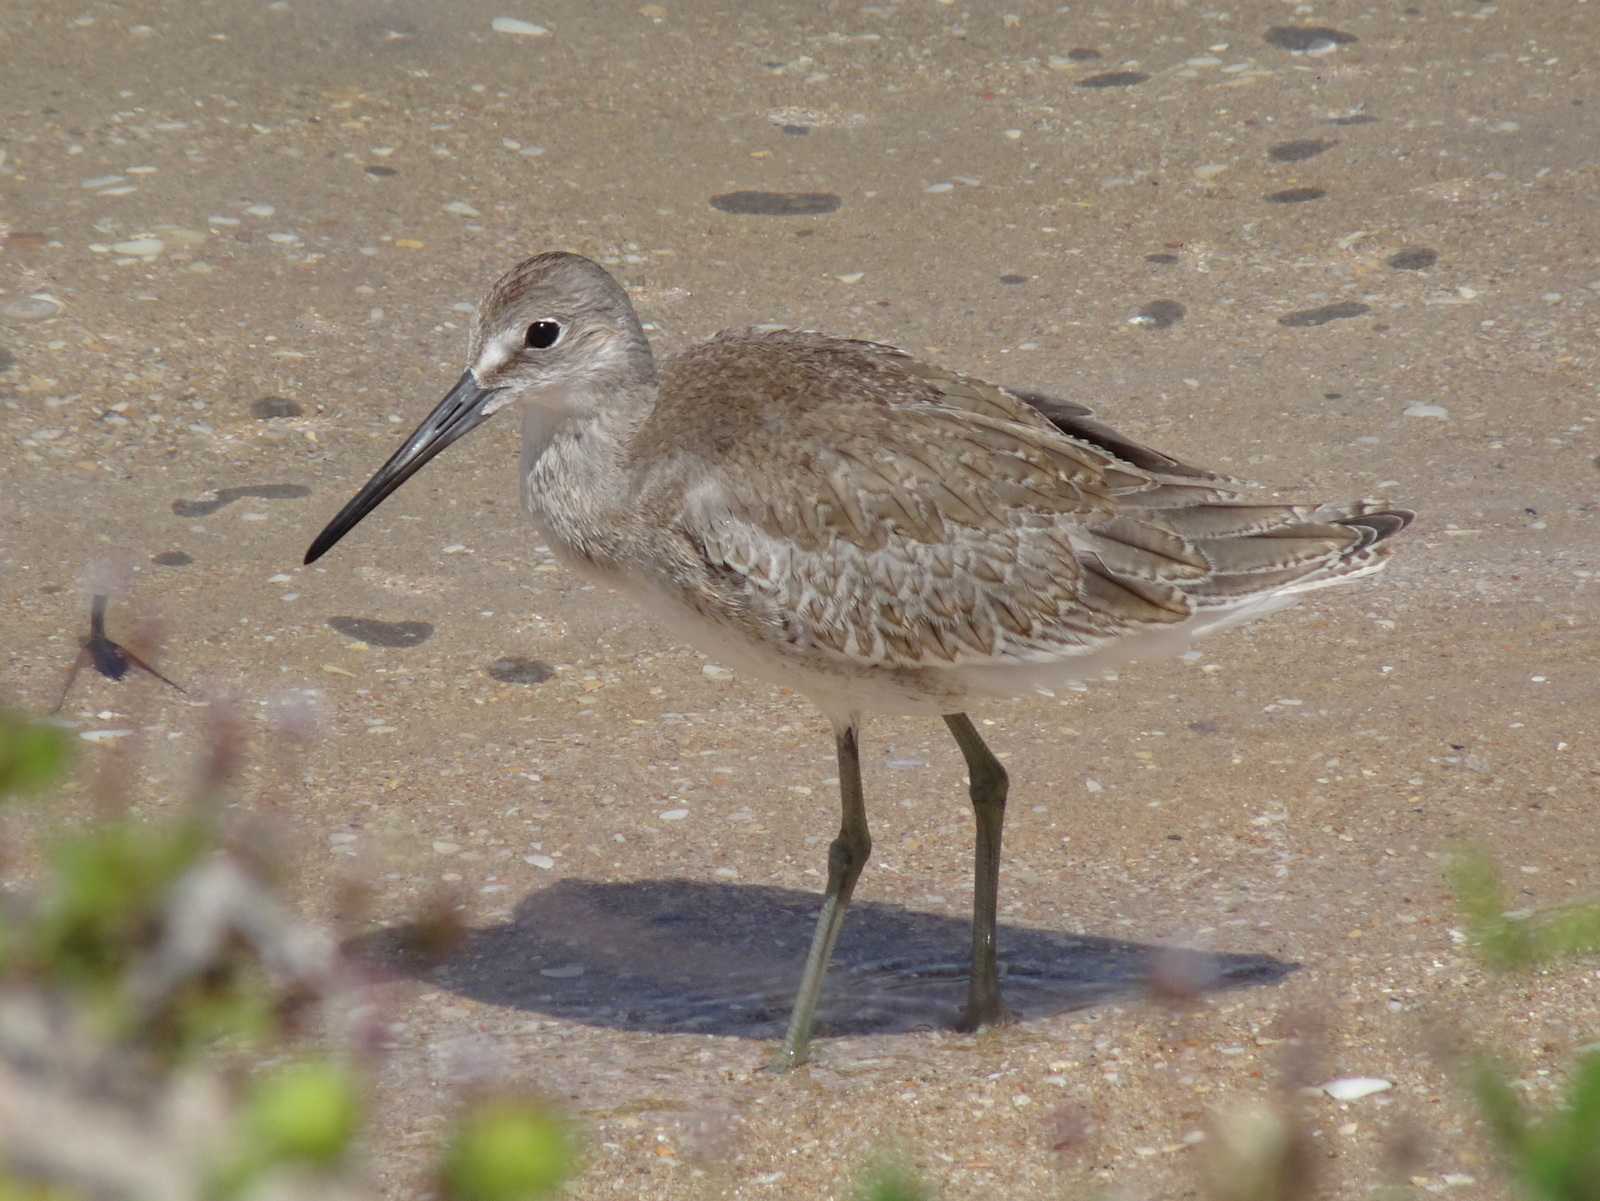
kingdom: Animalia
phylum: Chordata
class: Aves
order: Charadriiformes
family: Scolopacidae
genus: Tringa
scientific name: Tringa semipalmata
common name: Willet
